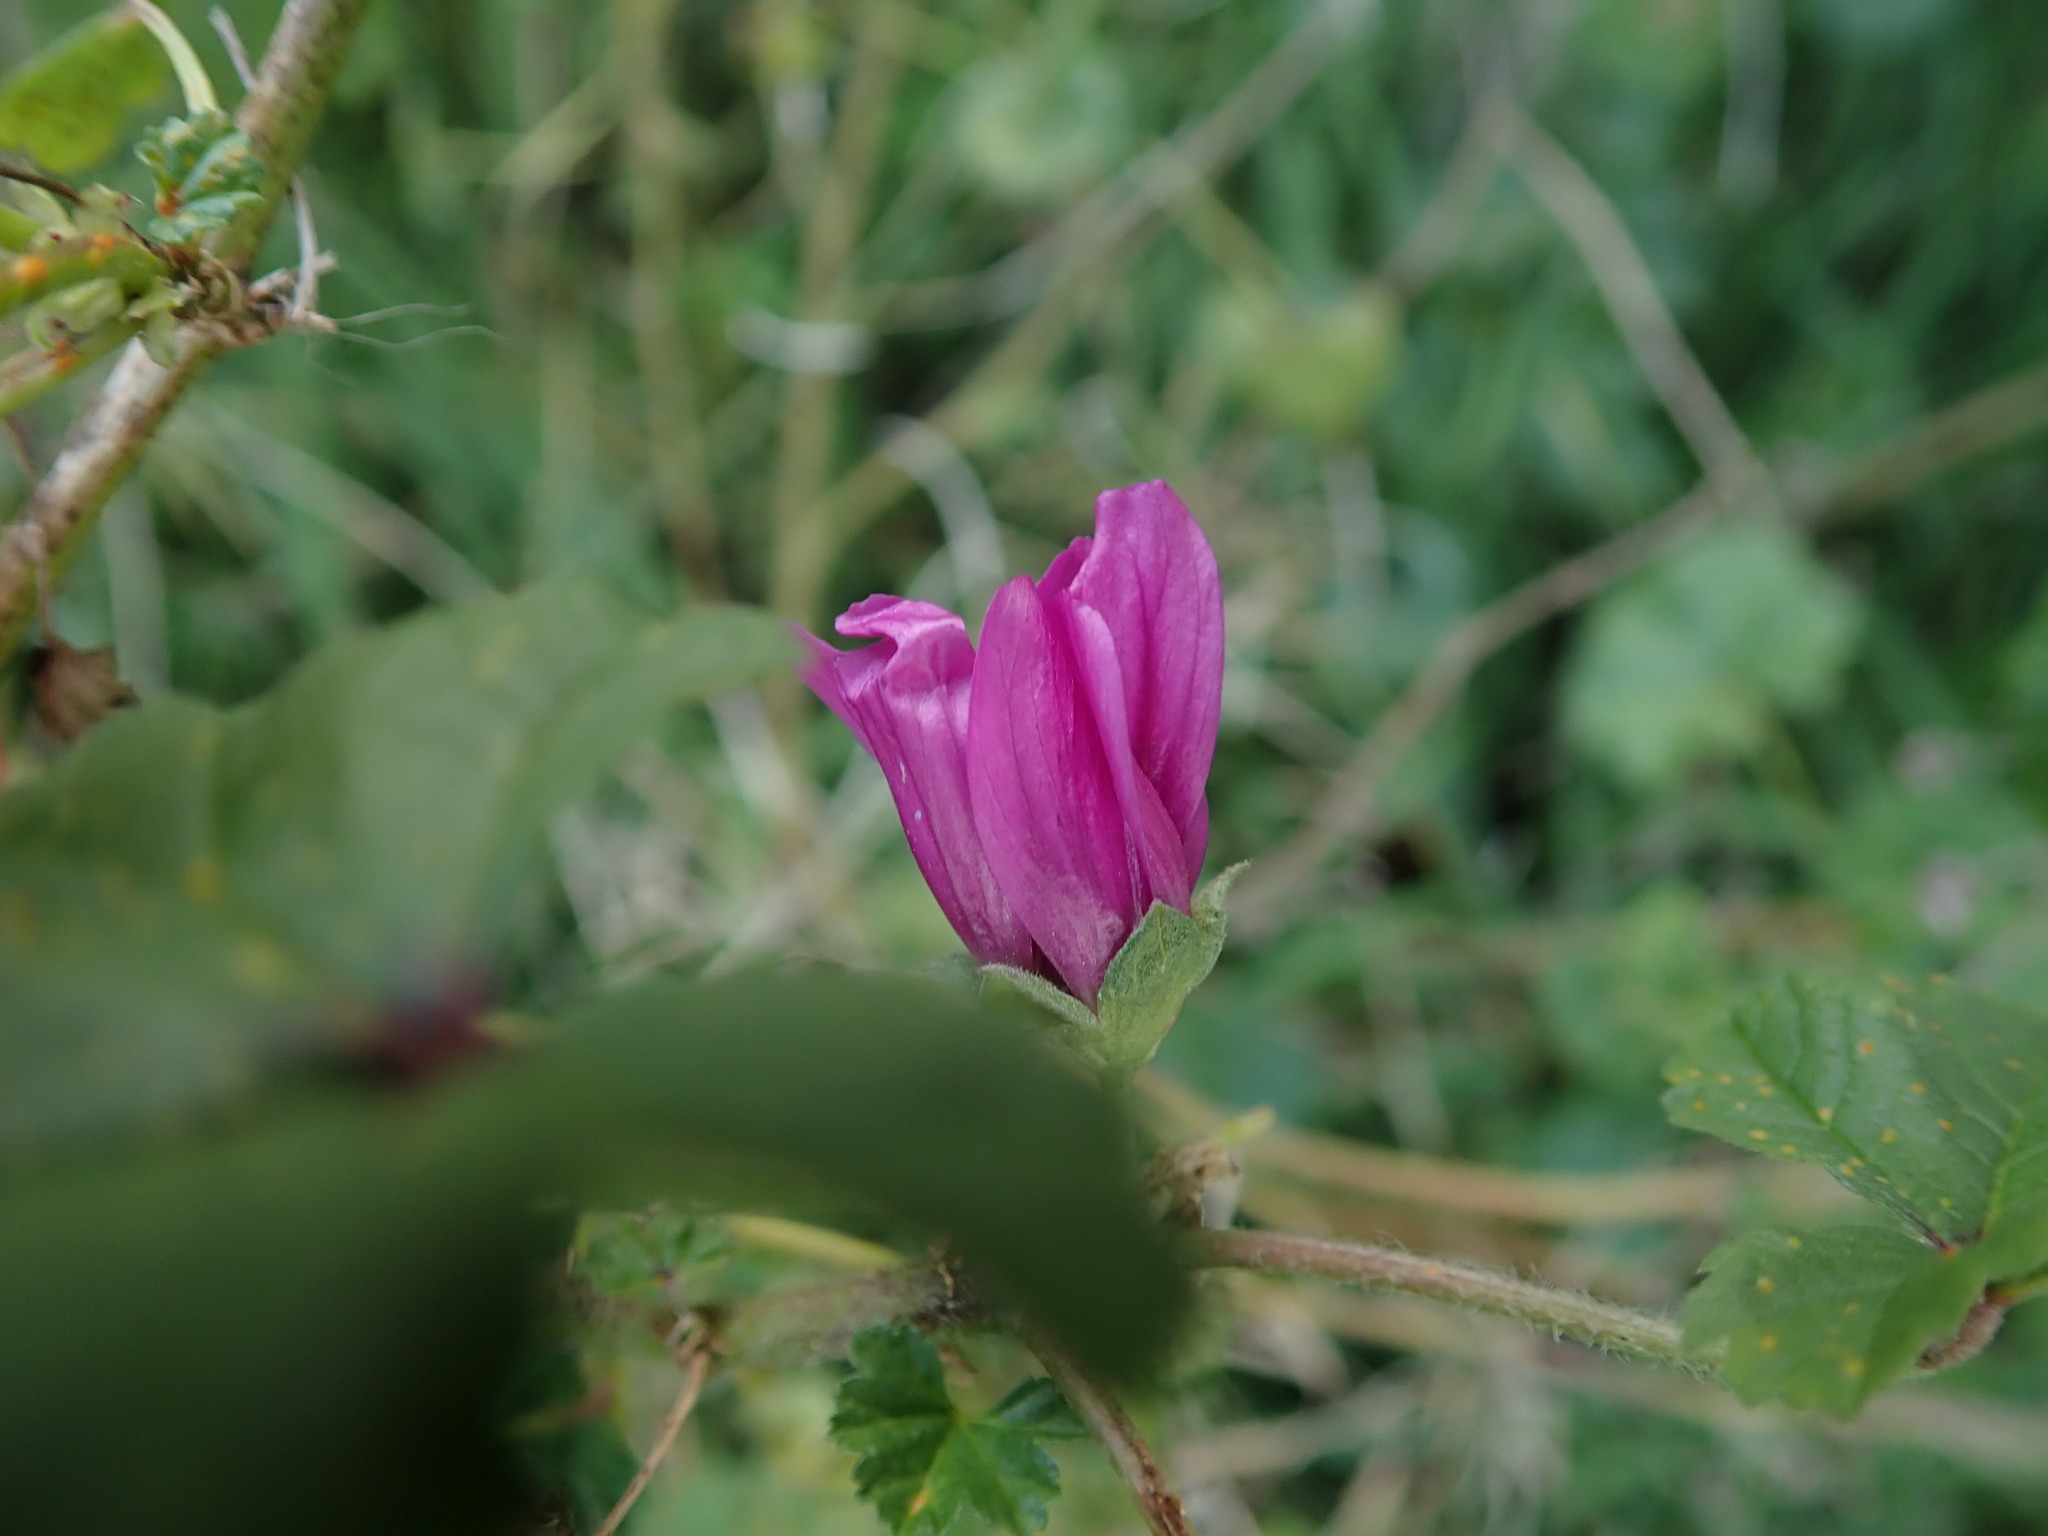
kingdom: Plantae
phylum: Tracheophyta
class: Magnoliopsida
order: Malvales
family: Malvaceae
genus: Malva
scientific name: Malva sylvestris
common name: Common mallow
